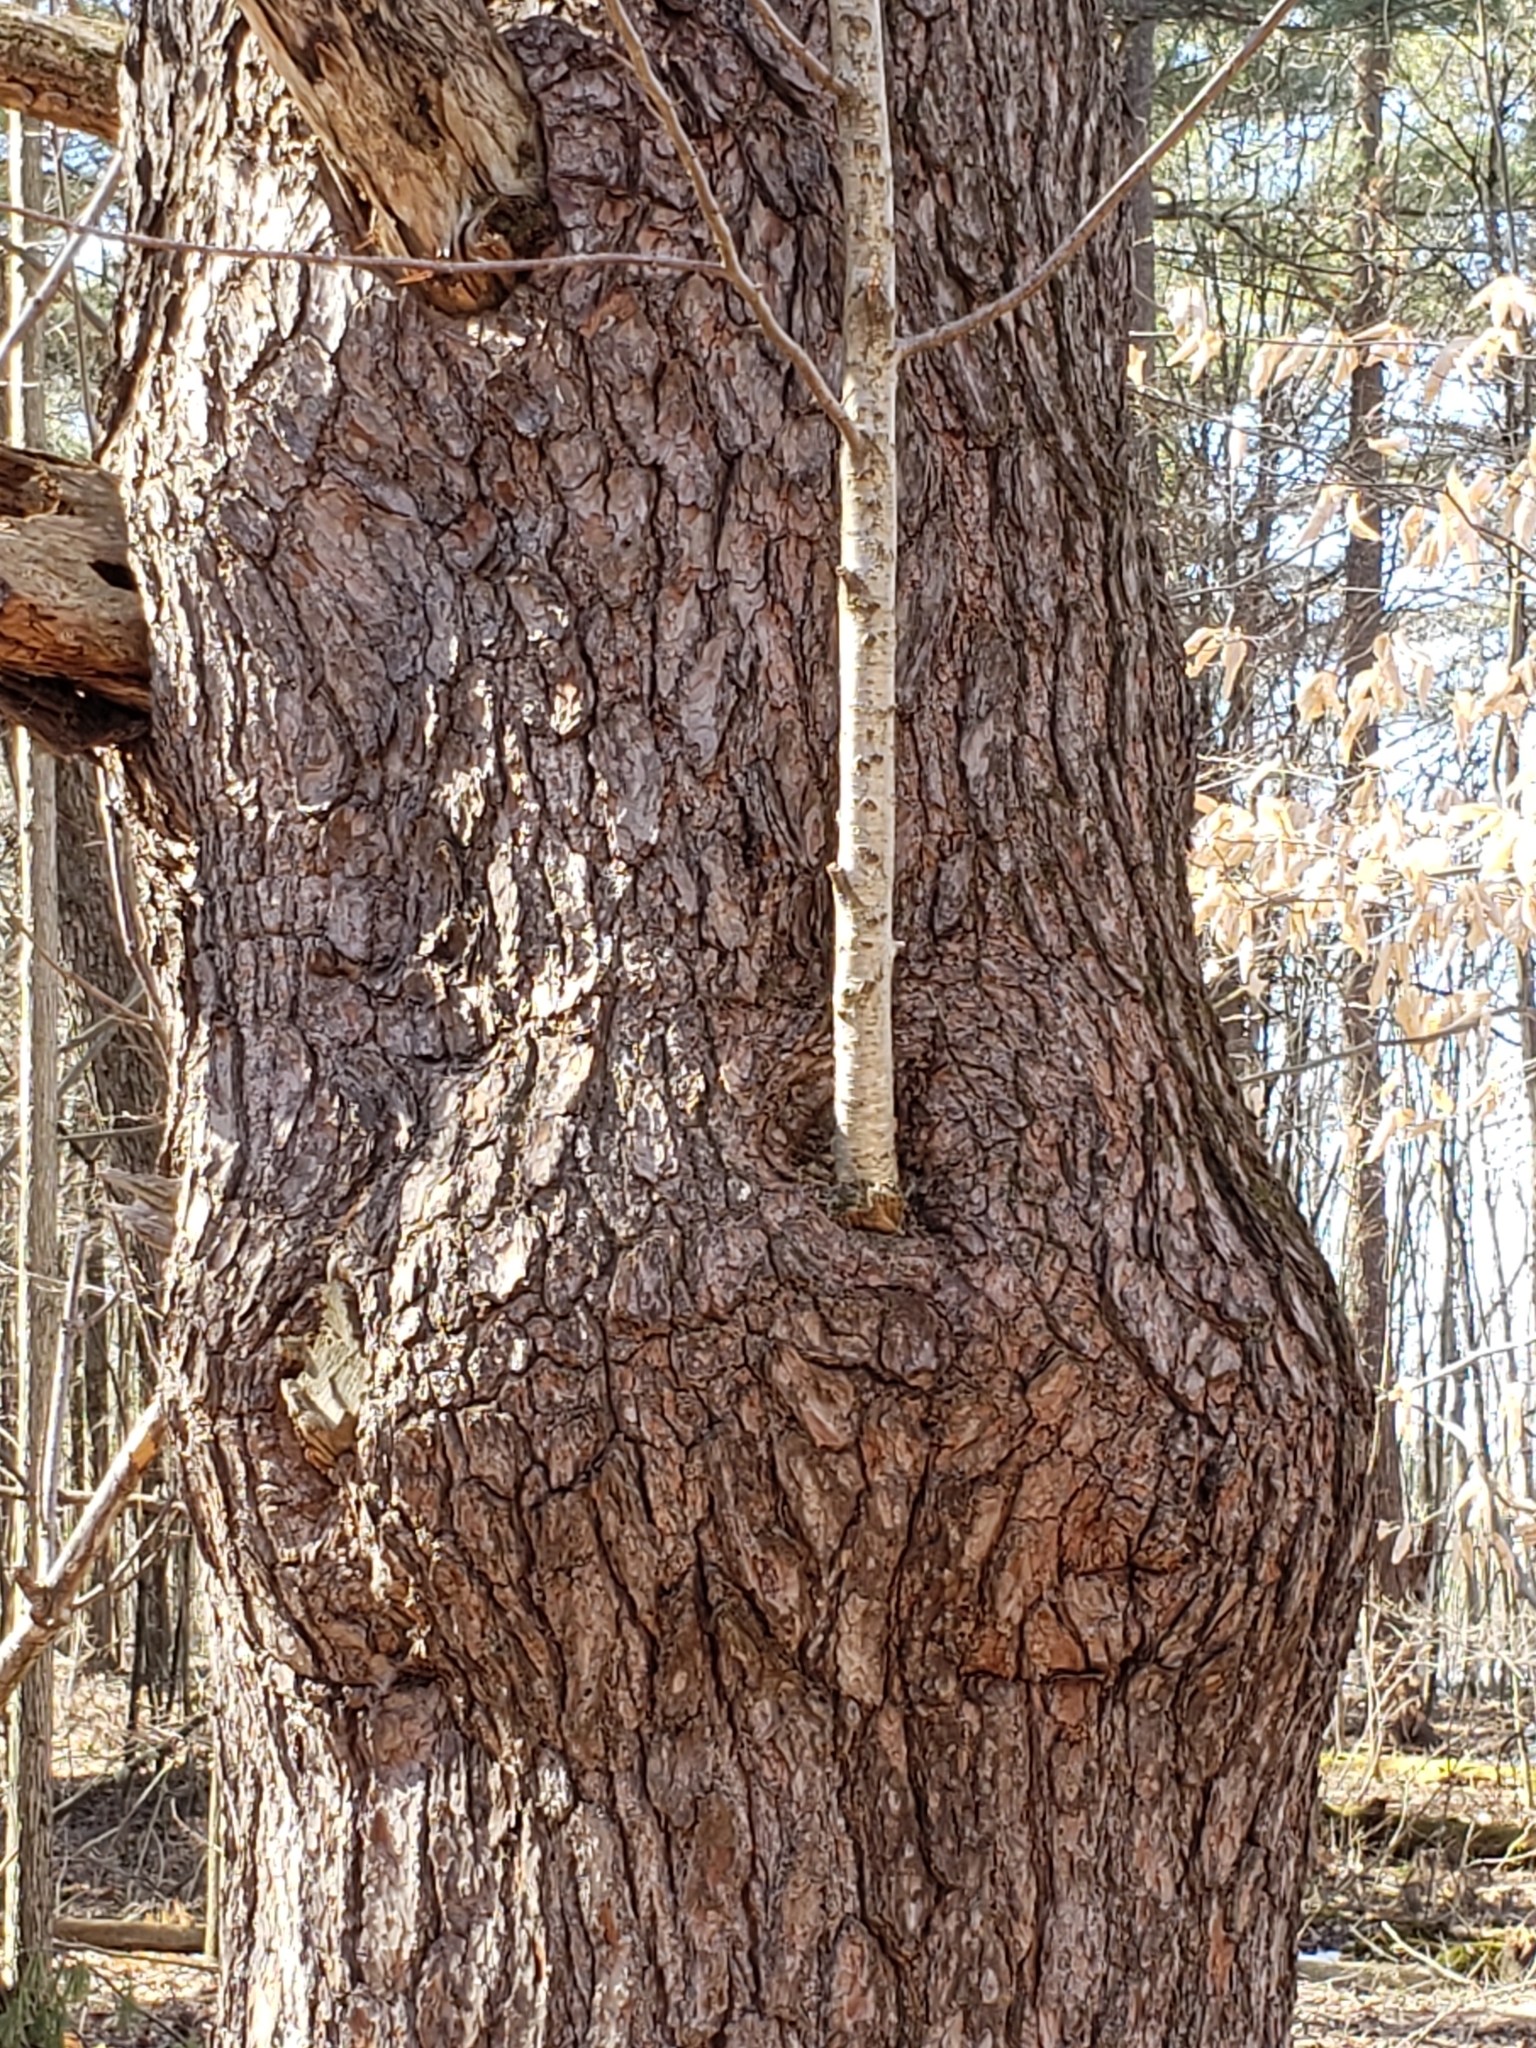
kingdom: Plantae
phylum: Tracheophyta
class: Pinopsida
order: Pinales
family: Pinaceae
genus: Pinus
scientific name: Pinus strobus
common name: Weymouth pine
